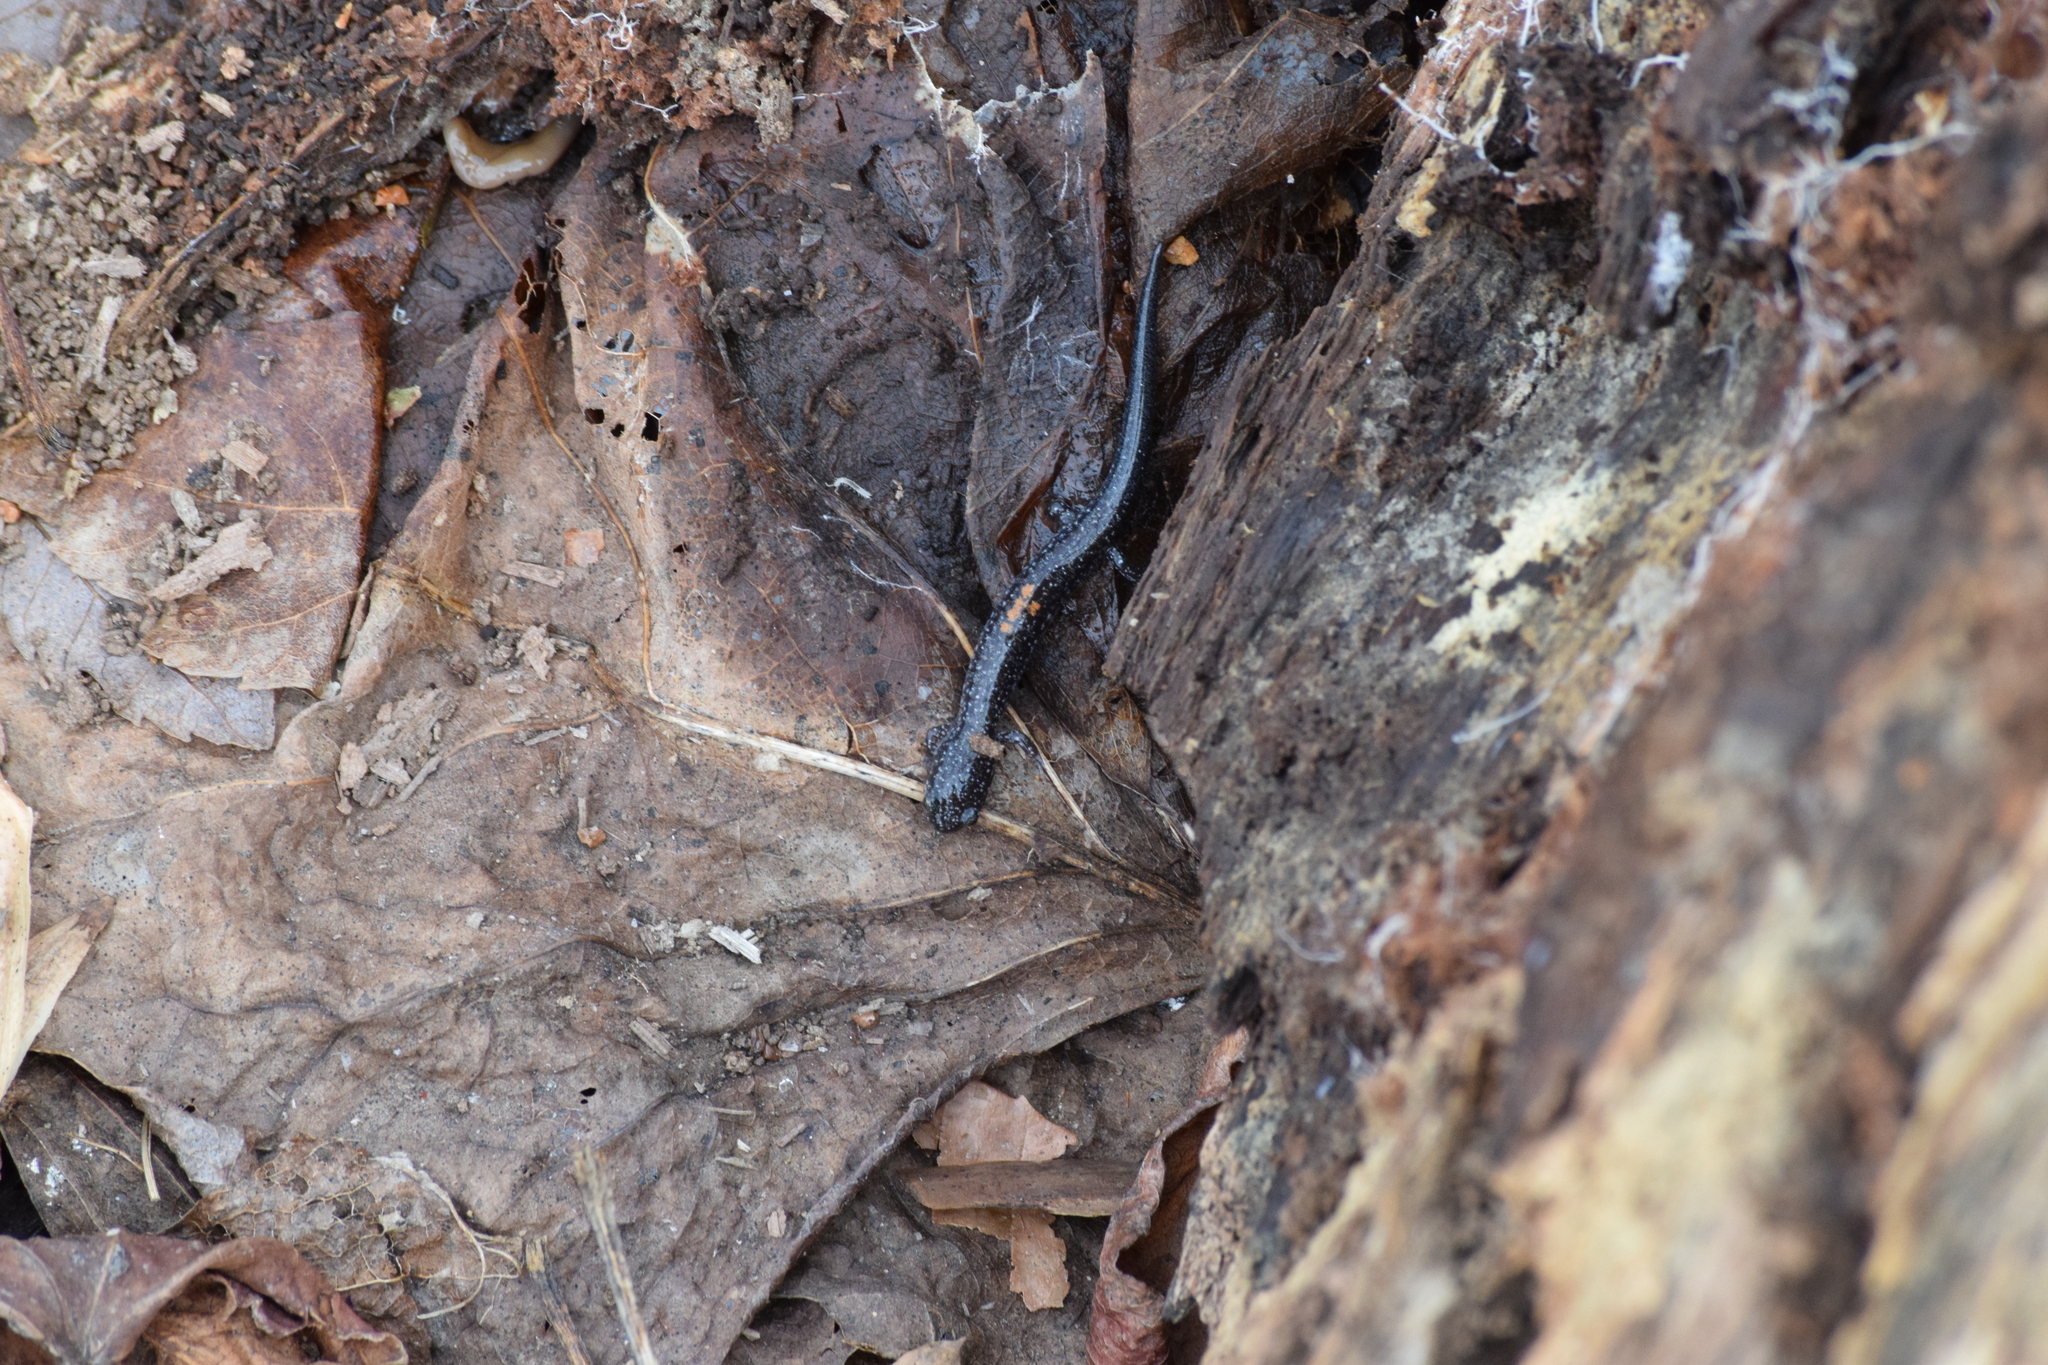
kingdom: Animalia
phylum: Chordata
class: Amphibia
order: Caudata
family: Plethodontidae
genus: Plethodon
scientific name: Plethodon cinereus
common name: Redback salamander
